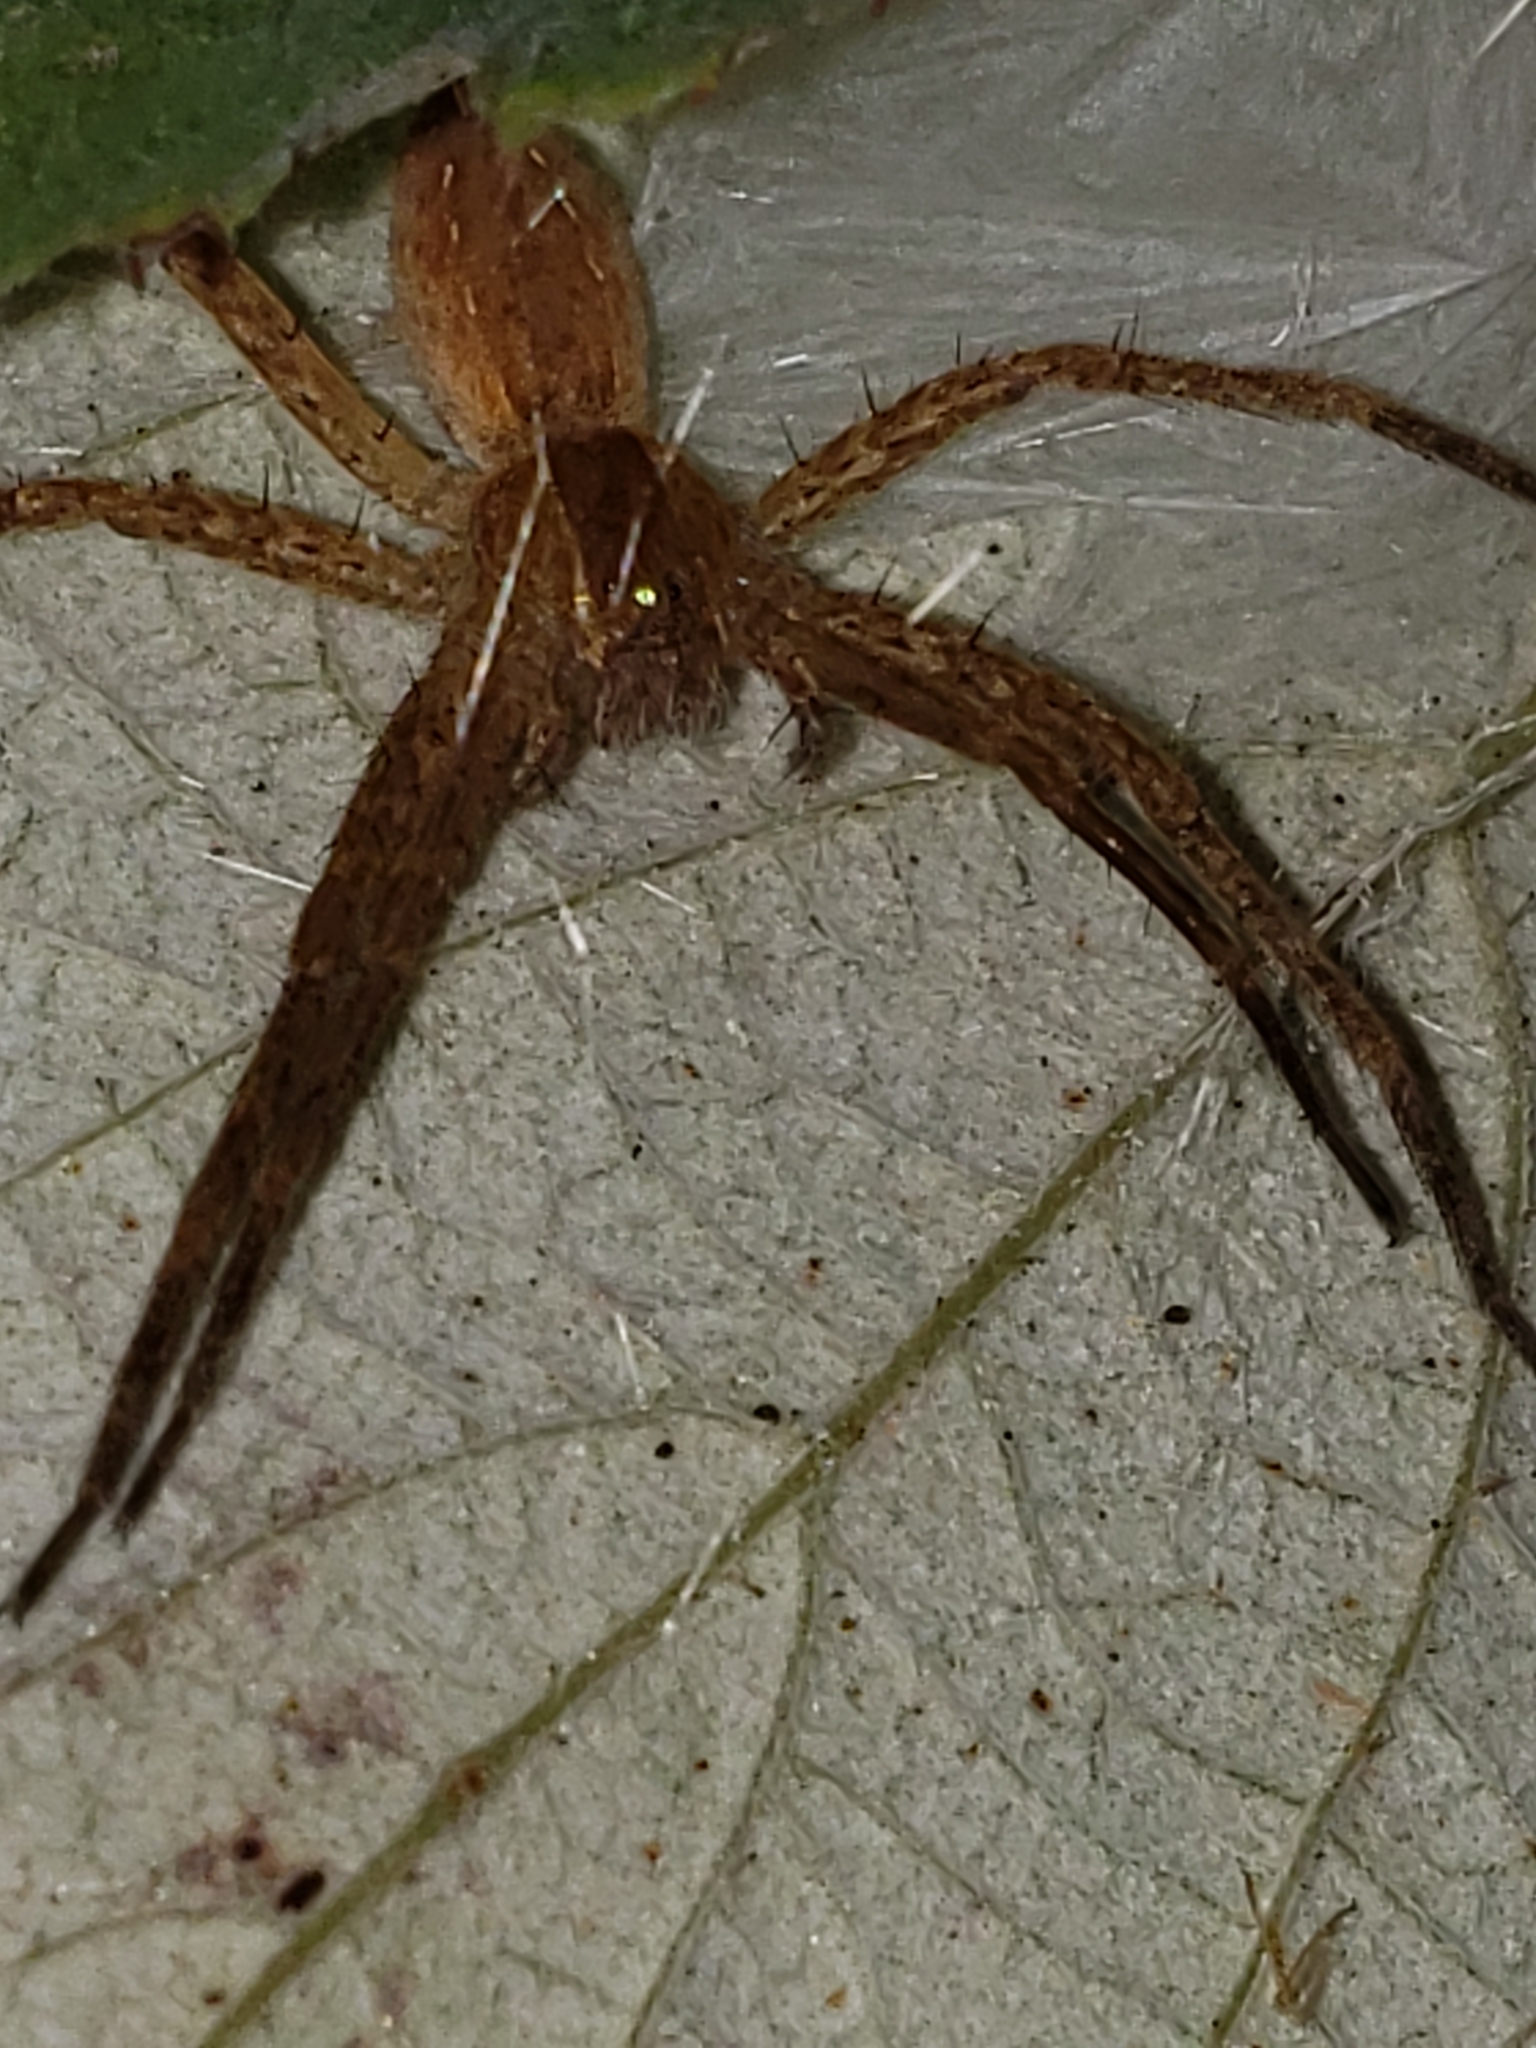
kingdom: Animalia
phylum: Arthropoda
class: Arachnida
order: Araneae
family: Pisauridae
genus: Pisaurina
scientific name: Pisaurina mira
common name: American nursery web spider
